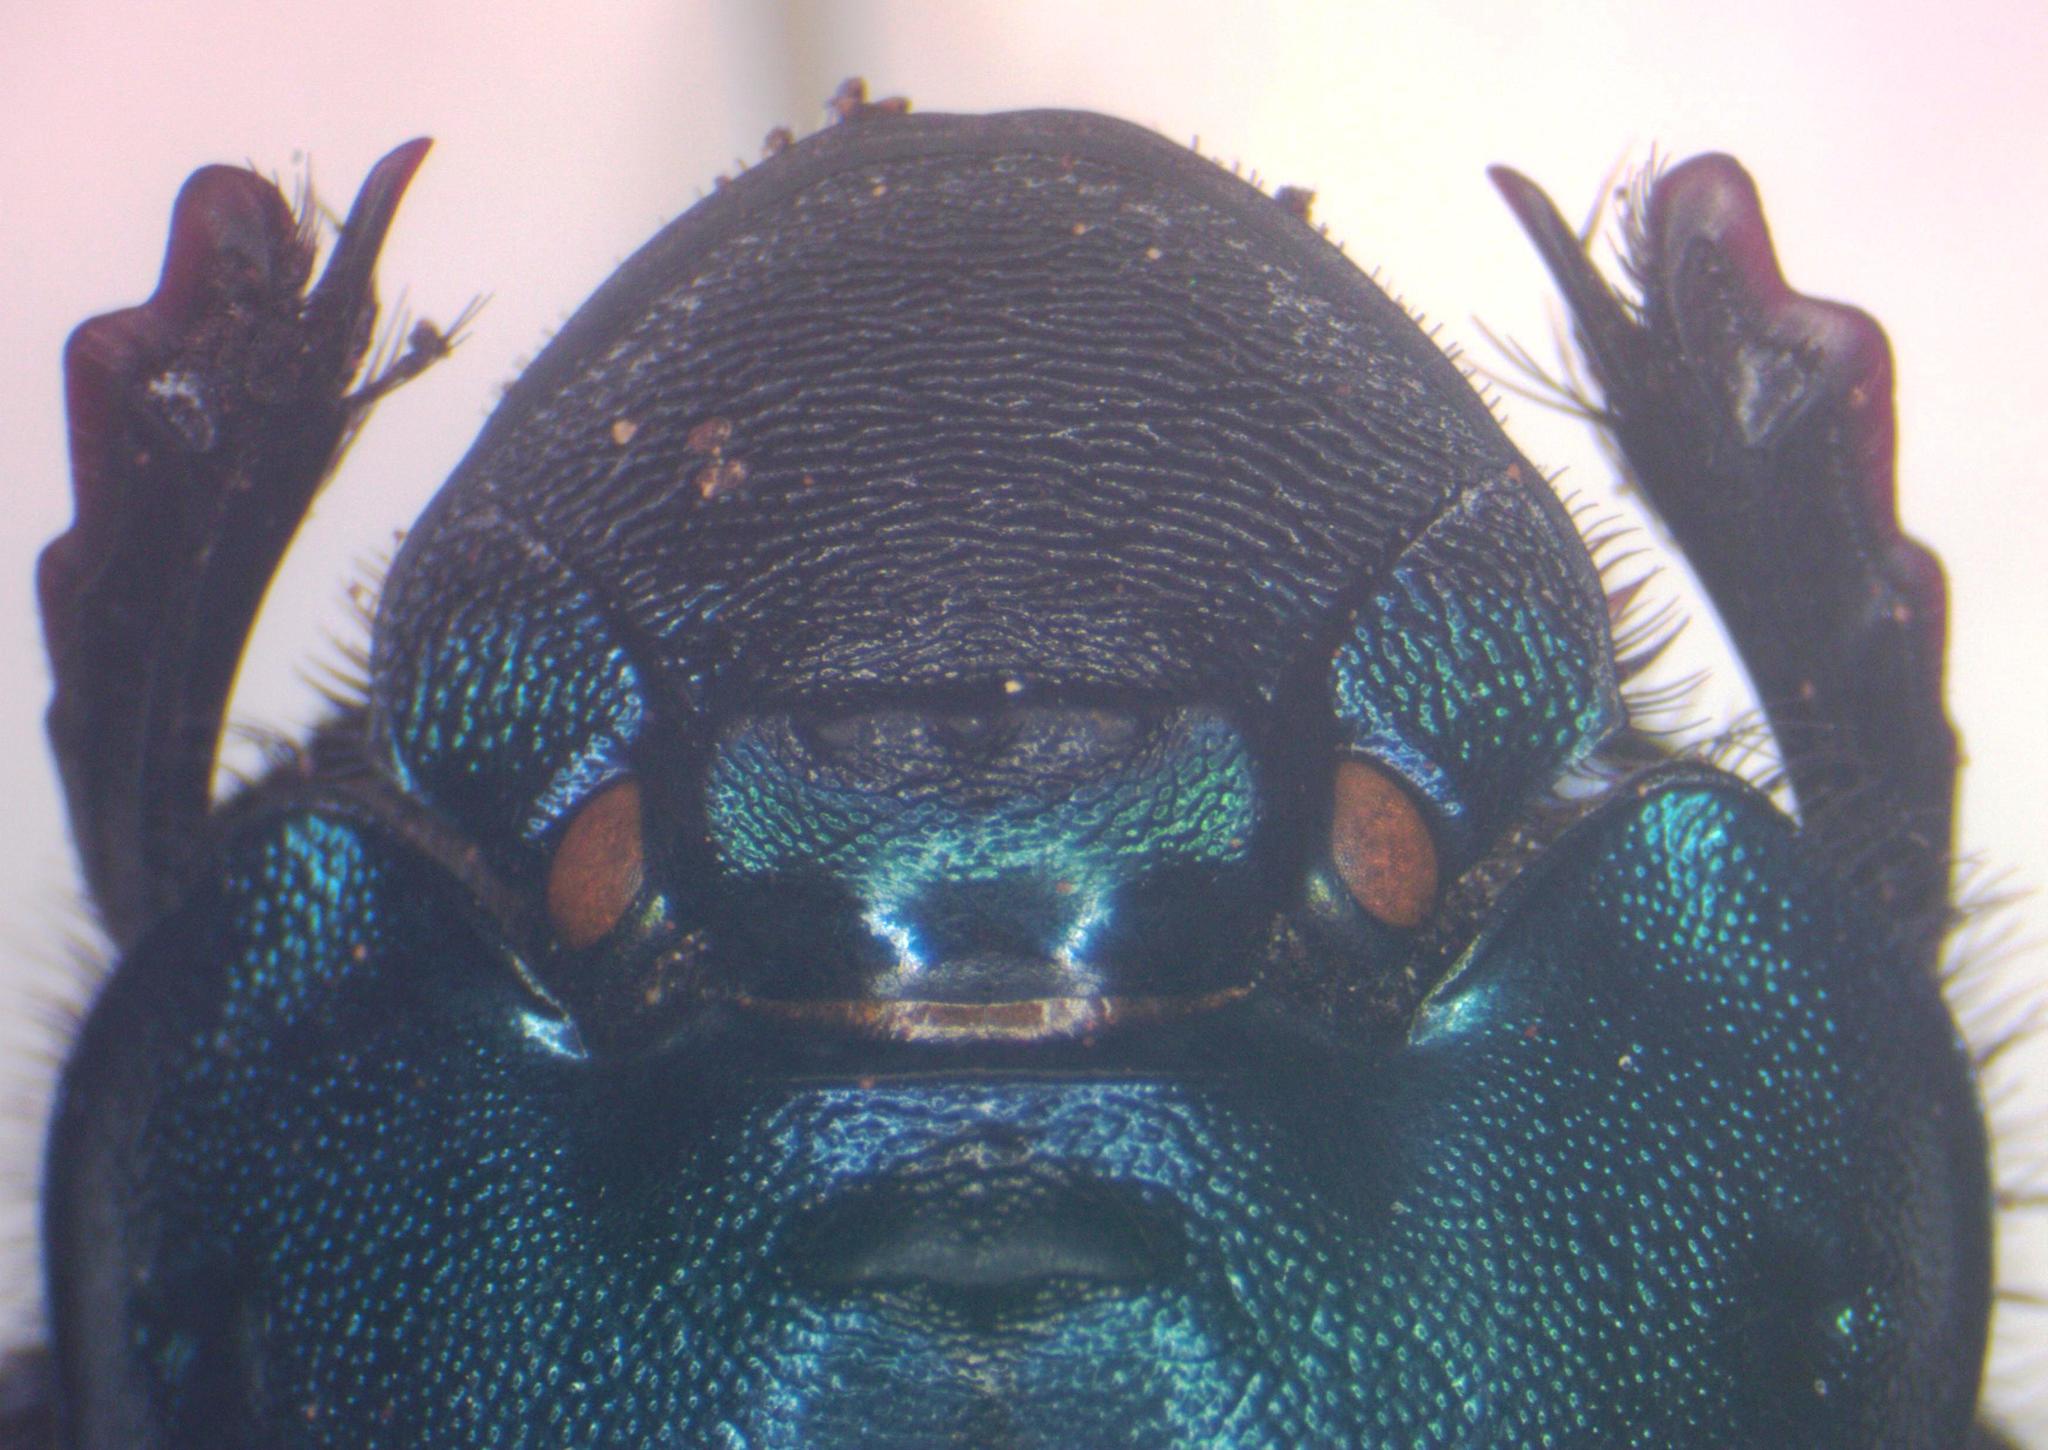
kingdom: Animalia
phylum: Arthropoda
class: Insecta
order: Coleoptera
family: Scarabaeidae
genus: Phanaeus
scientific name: Phanaeus eximius
